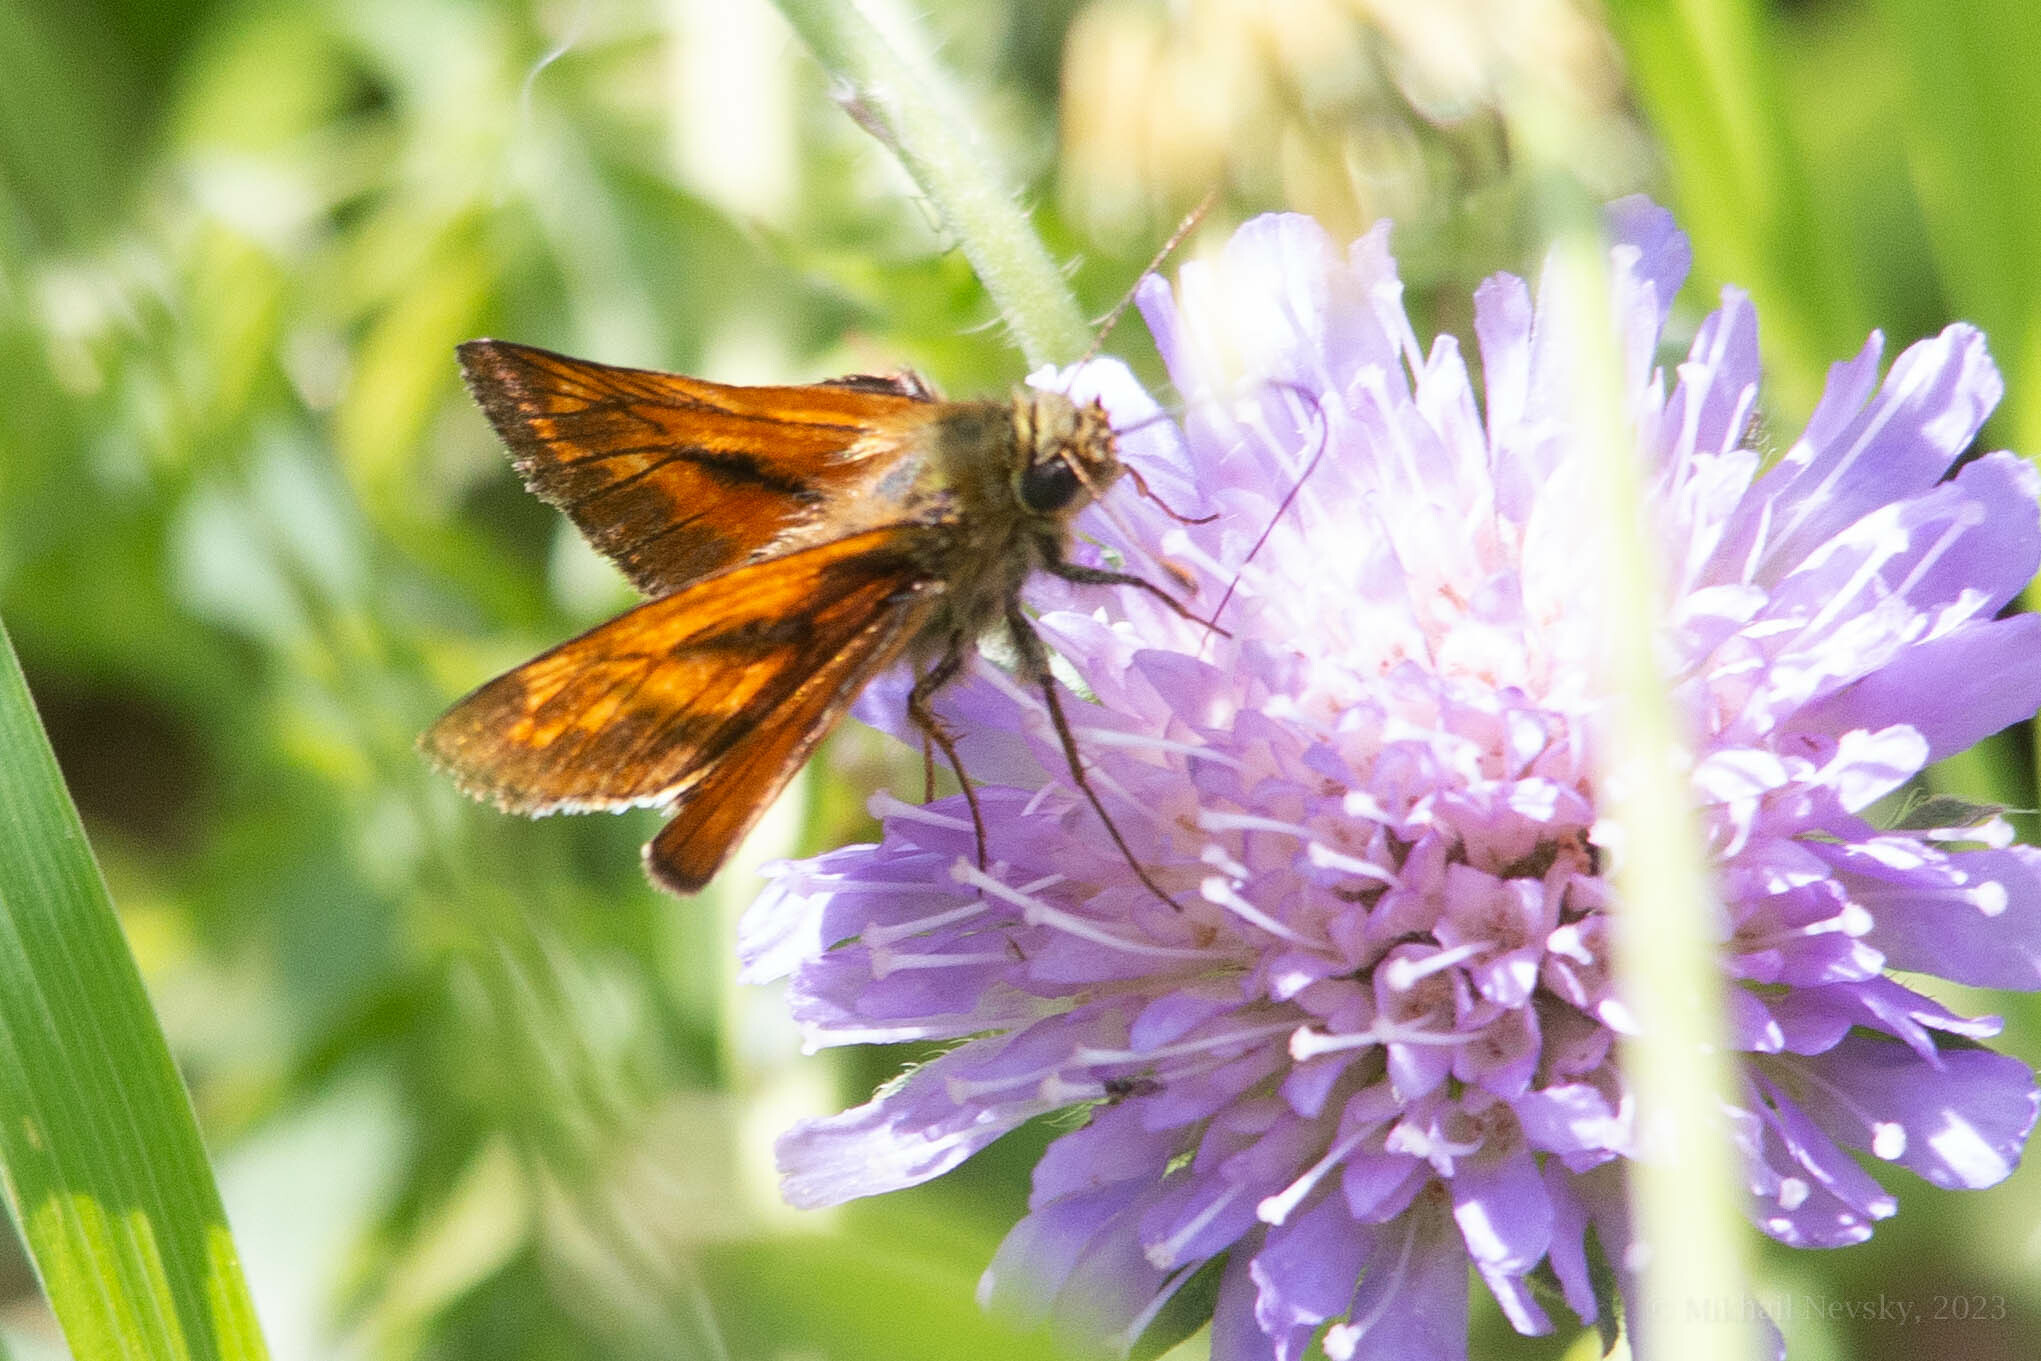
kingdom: Animalia
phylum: Arthropoda
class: Insecta
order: Lepidoptera
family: Hesperiidae
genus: Ochlodes
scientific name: Ochlodes venata
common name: Large skipper
